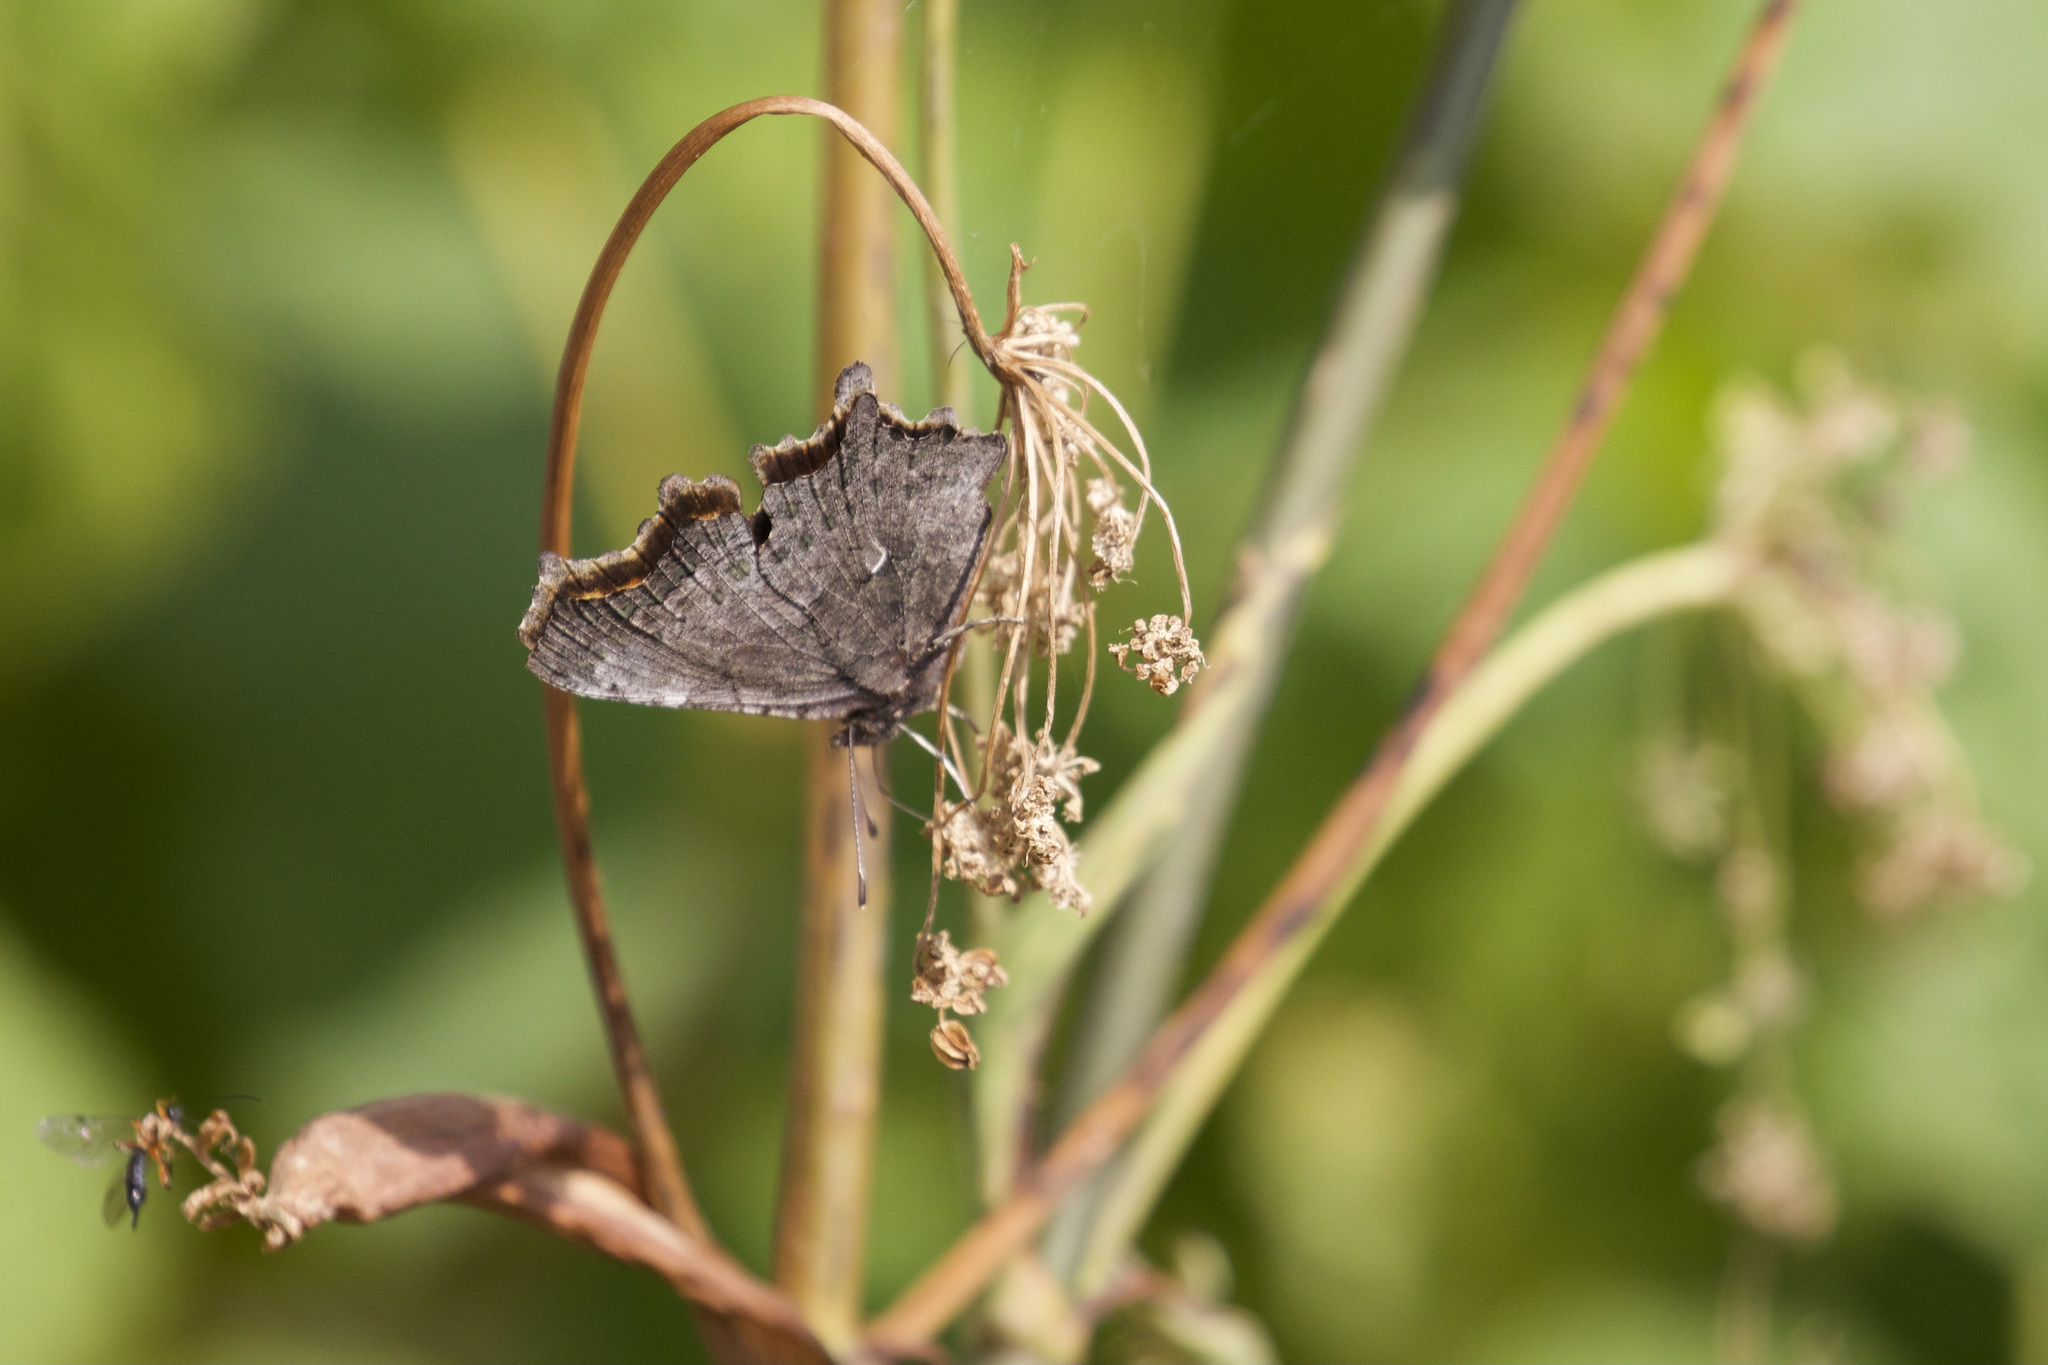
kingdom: Animalia
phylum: Arthropoda
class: Insecta
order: Lepidoptera
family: Nymphalidae
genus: Polygonia
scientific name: Polygonia faunus
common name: Green comma
